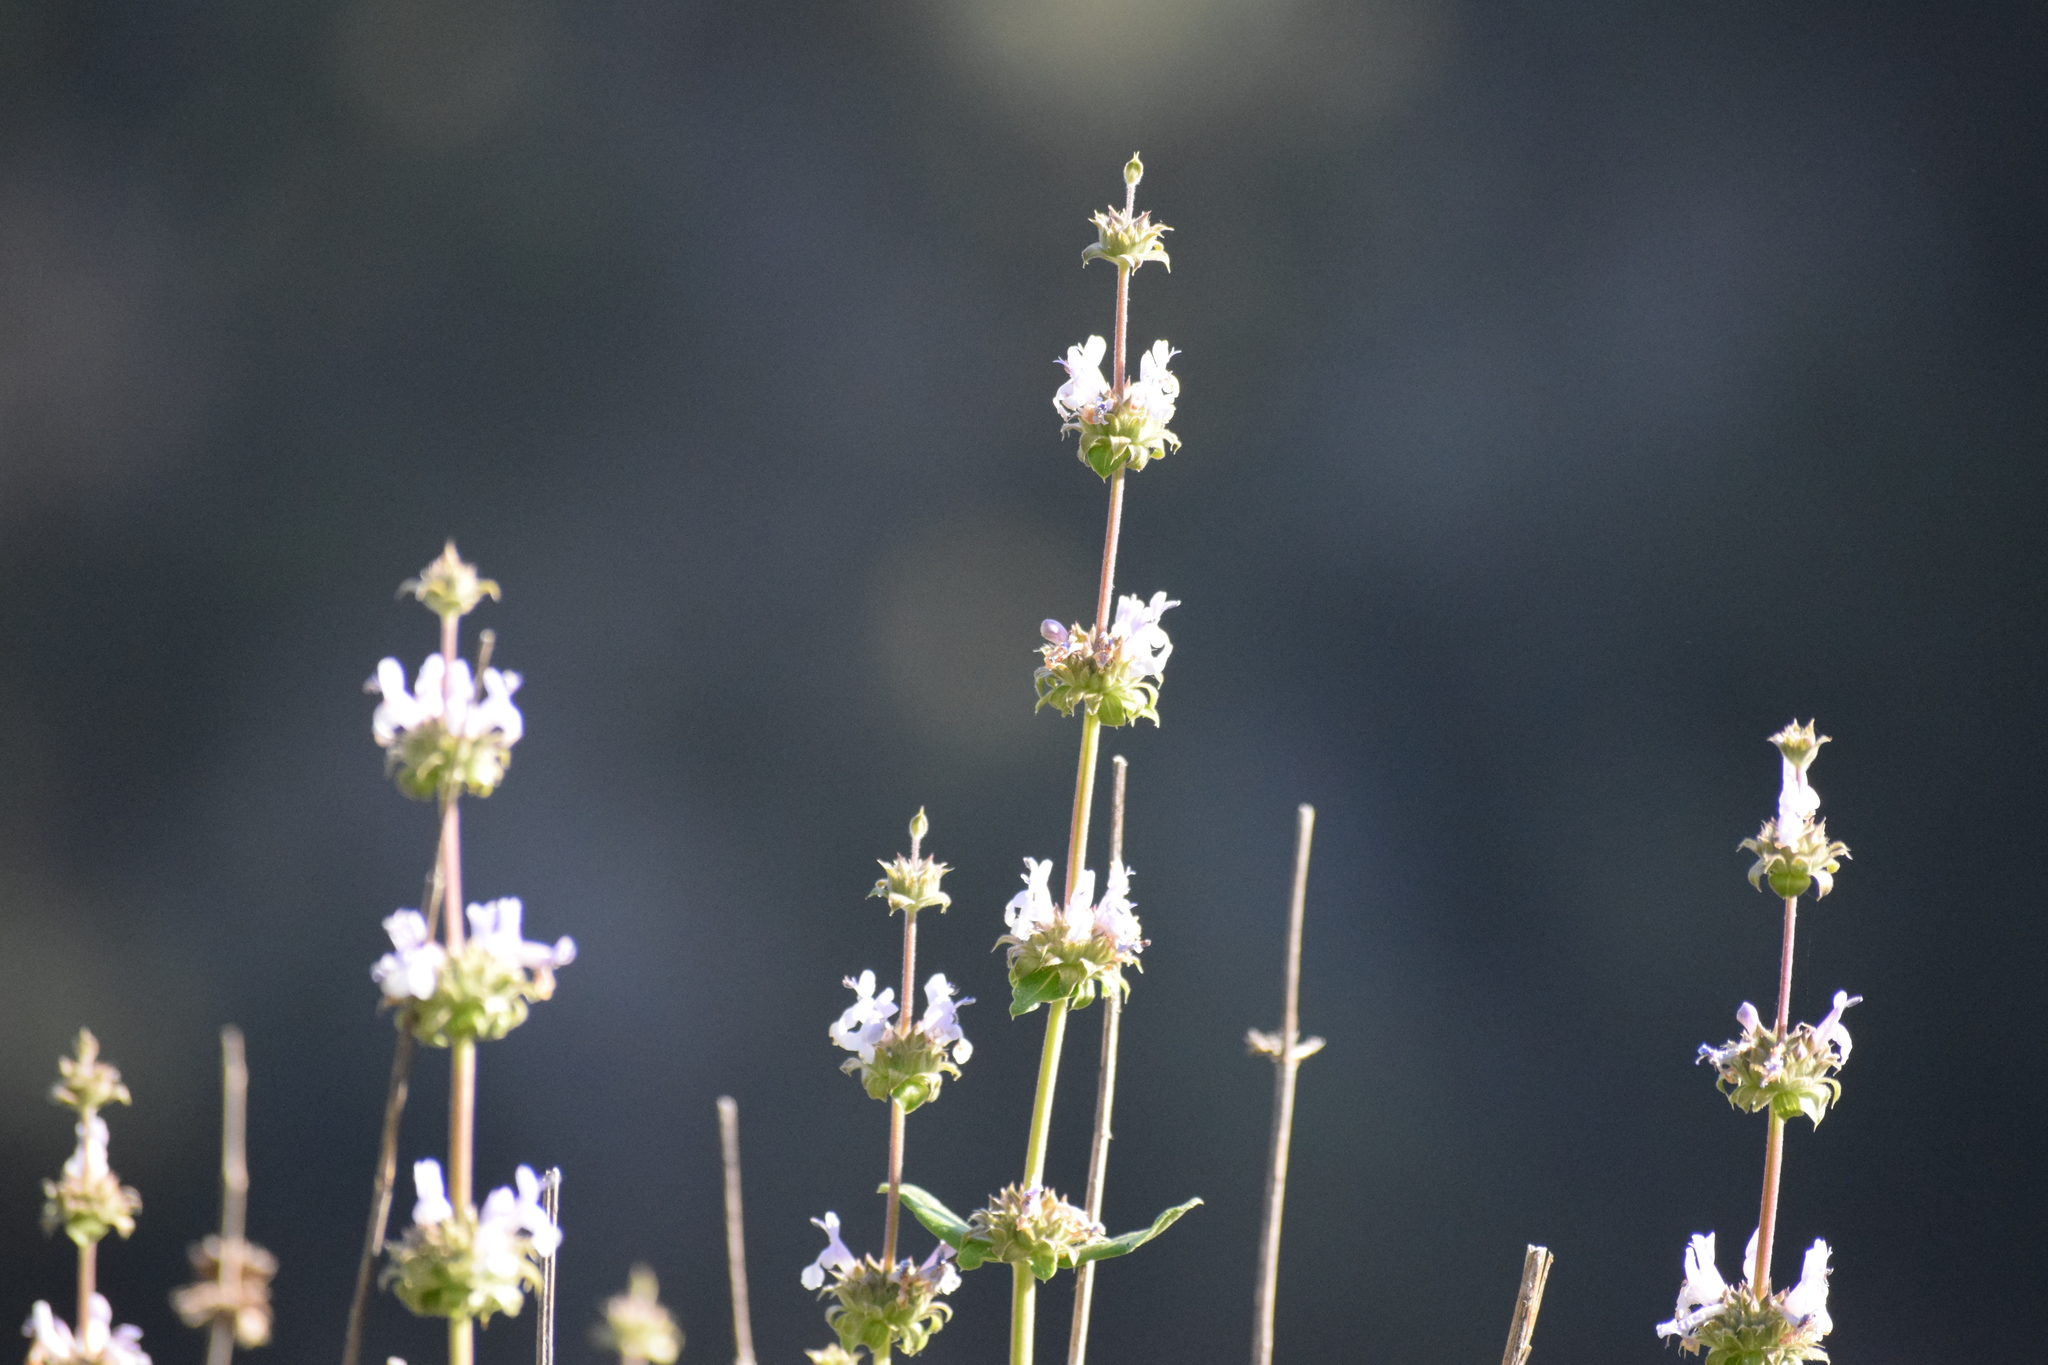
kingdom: Plantae
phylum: Tracheophyta
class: Magnoliopsida
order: Lamiales
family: Lamiaceae
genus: Salvia
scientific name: Salvia mellifera
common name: Black sage
